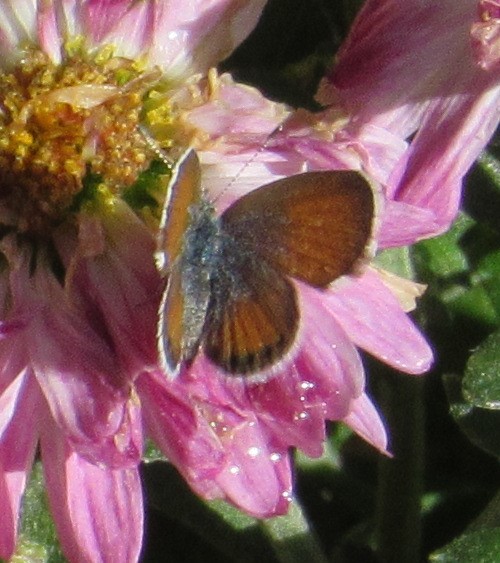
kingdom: Animalia
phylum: Arthropoda
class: Insecta
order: Lepidoptera
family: Lycaenidae
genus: Brephidium
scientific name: Brephidium exilis
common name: Pygmy blue
